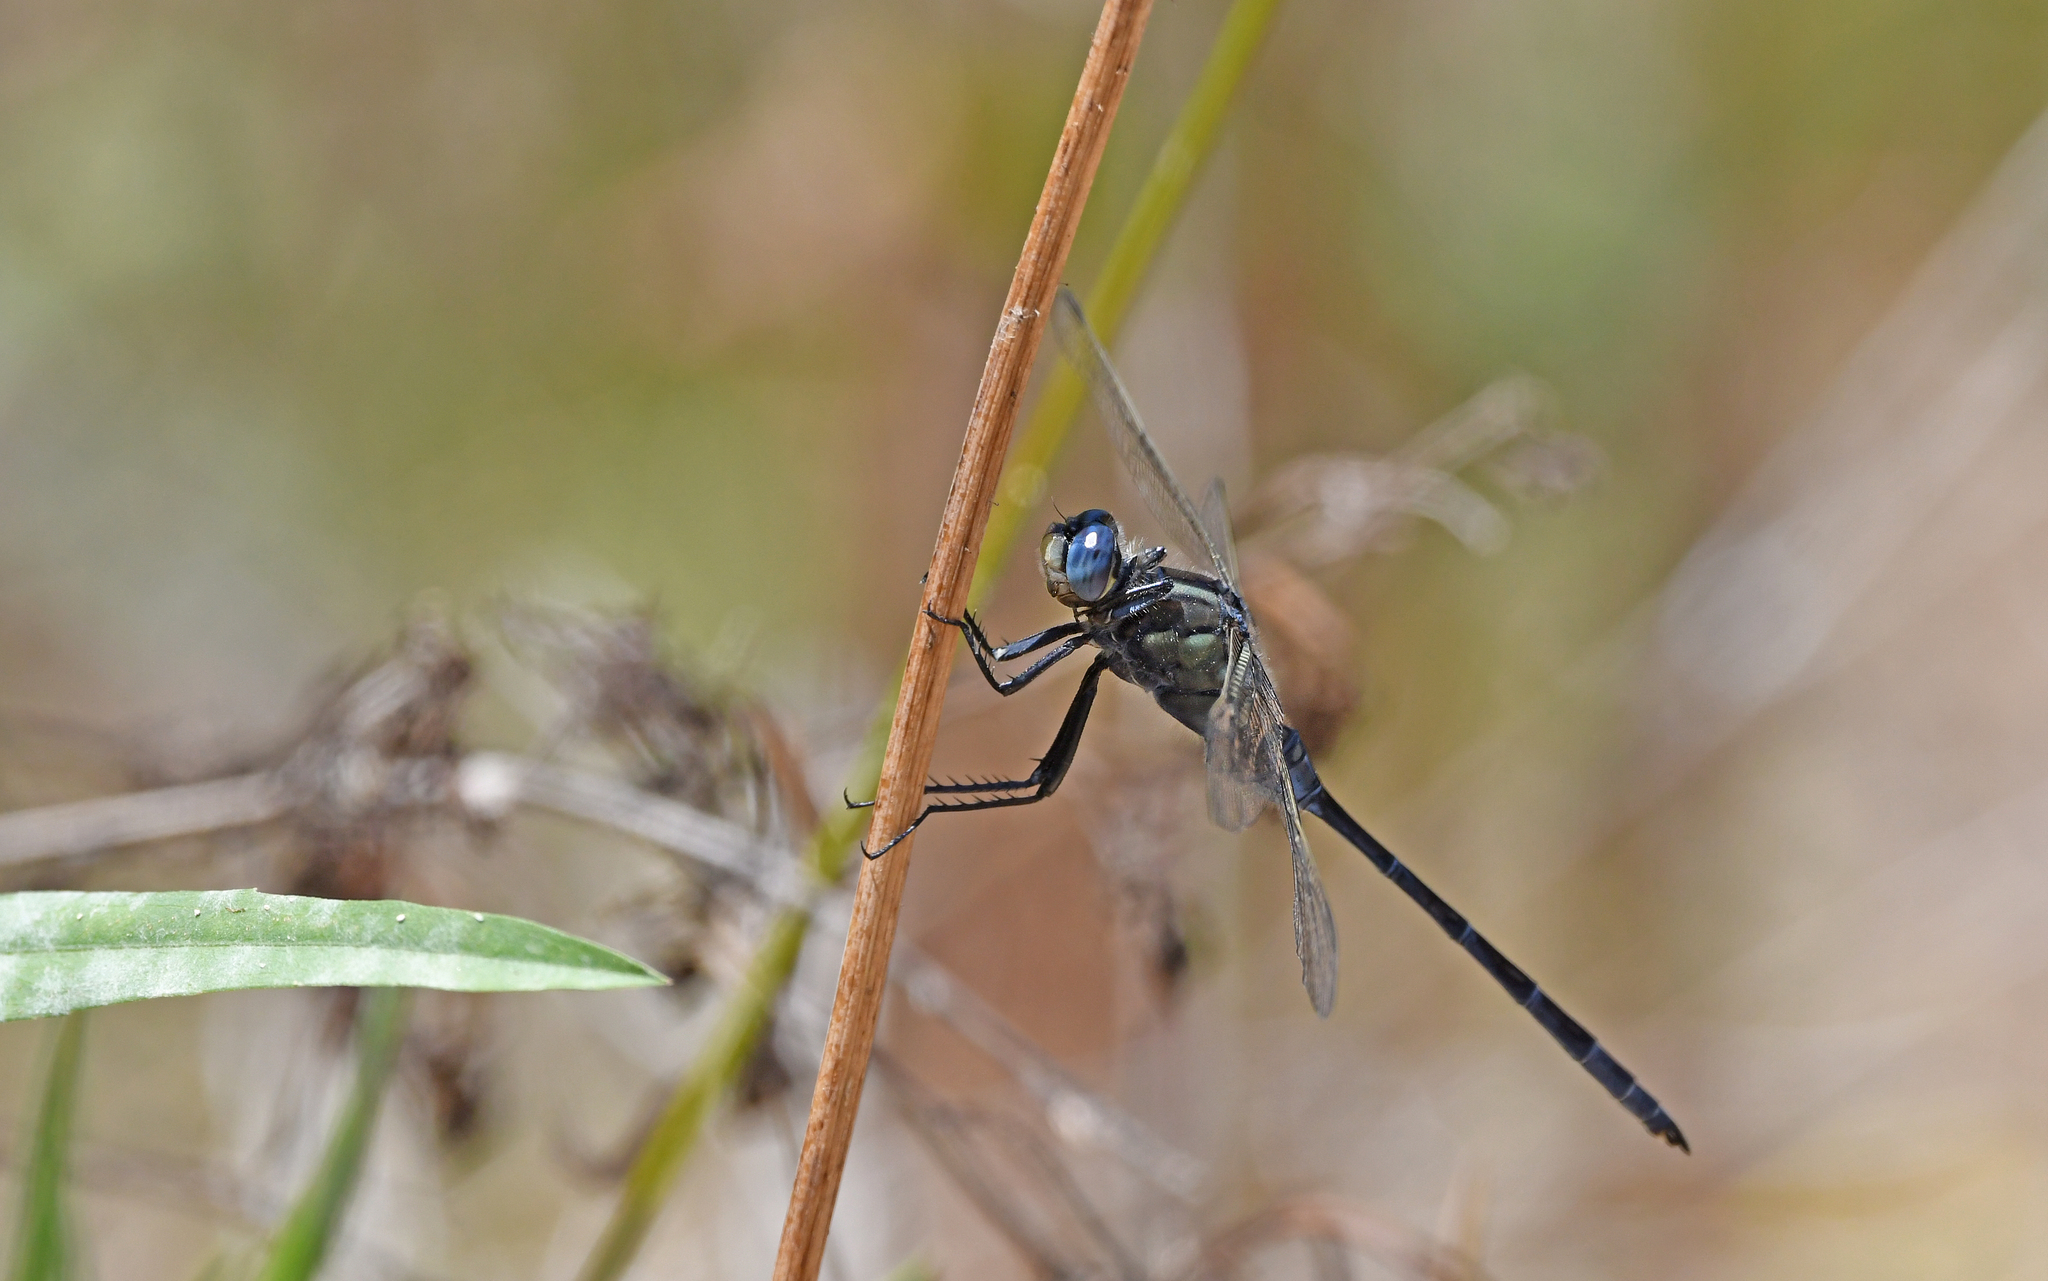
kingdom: Animalia
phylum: Arthropoda
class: Insecta
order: Odonata
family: Libellulidae
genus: Orthetrum
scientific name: Orthetrum trinacria
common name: Long skimmer
